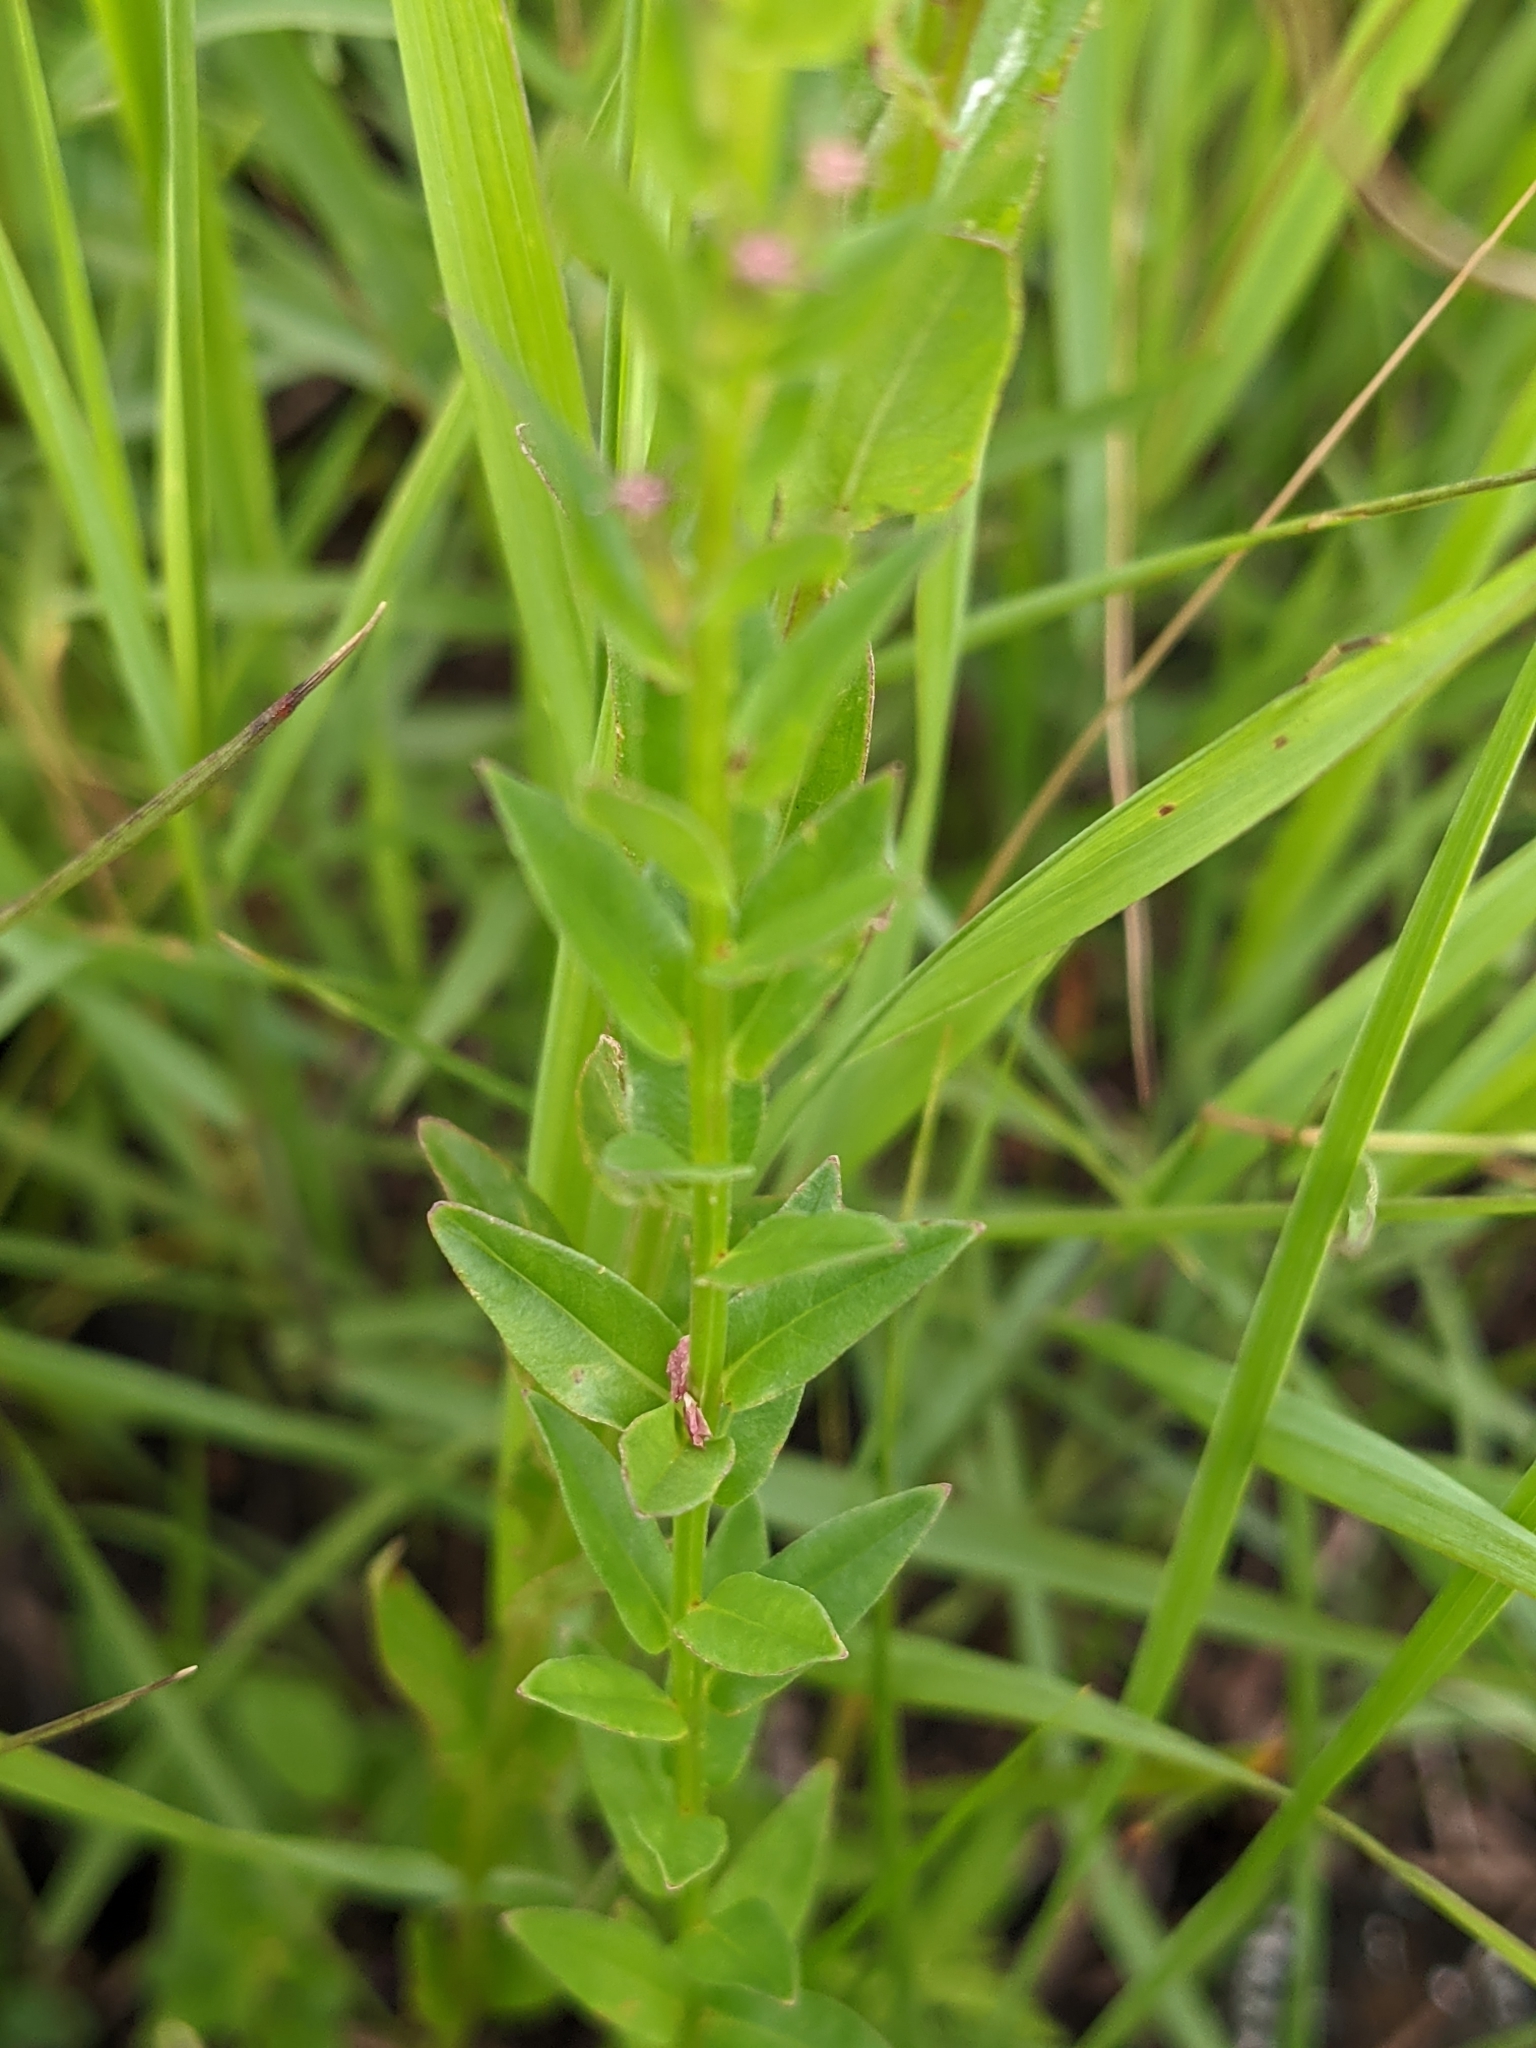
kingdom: Plantae
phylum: Tracheophyta
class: Magnoliopsida
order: Myrtales
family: Lythraceae
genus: Lythrum
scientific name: Lythrum alatum
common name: Winged loosestrife
